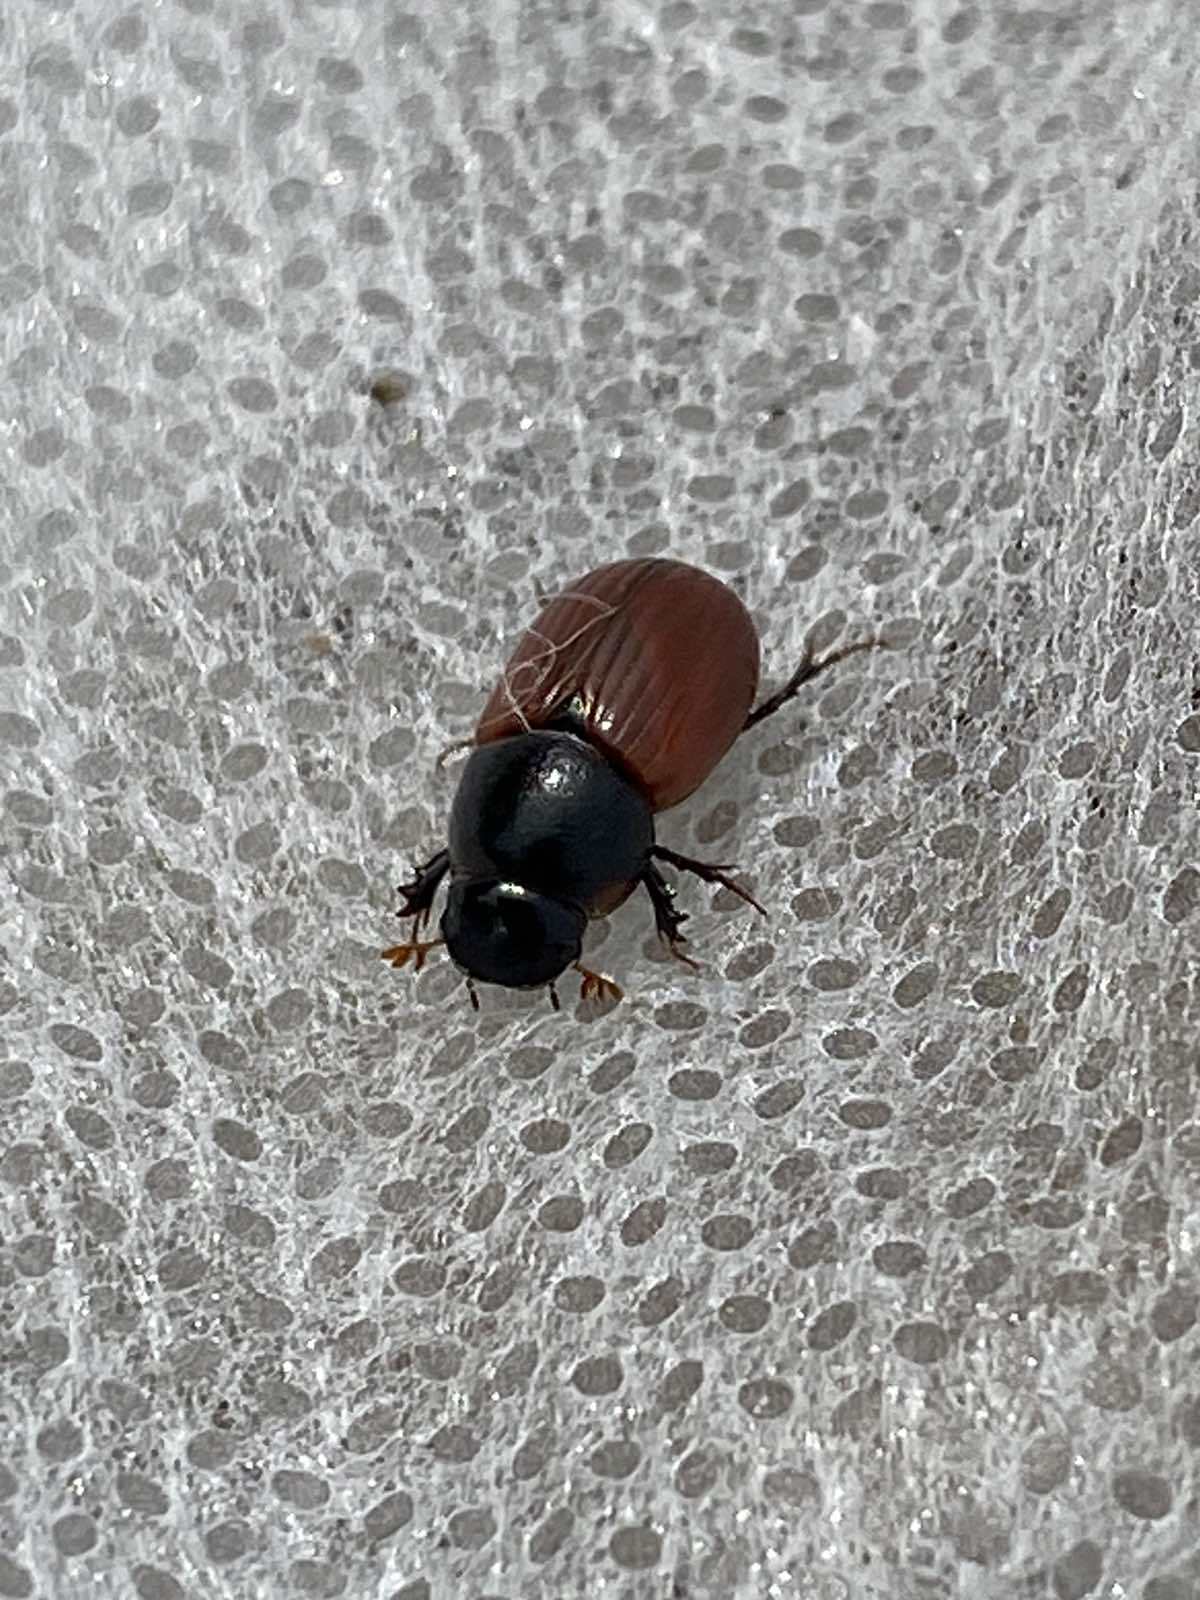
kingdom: Animalia
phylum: Arthropoda
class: Insecta
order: Coleoptera
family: Scarabaeidae
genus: Aphodius
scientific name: Aphodius pedellus
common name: Common dung beetle
